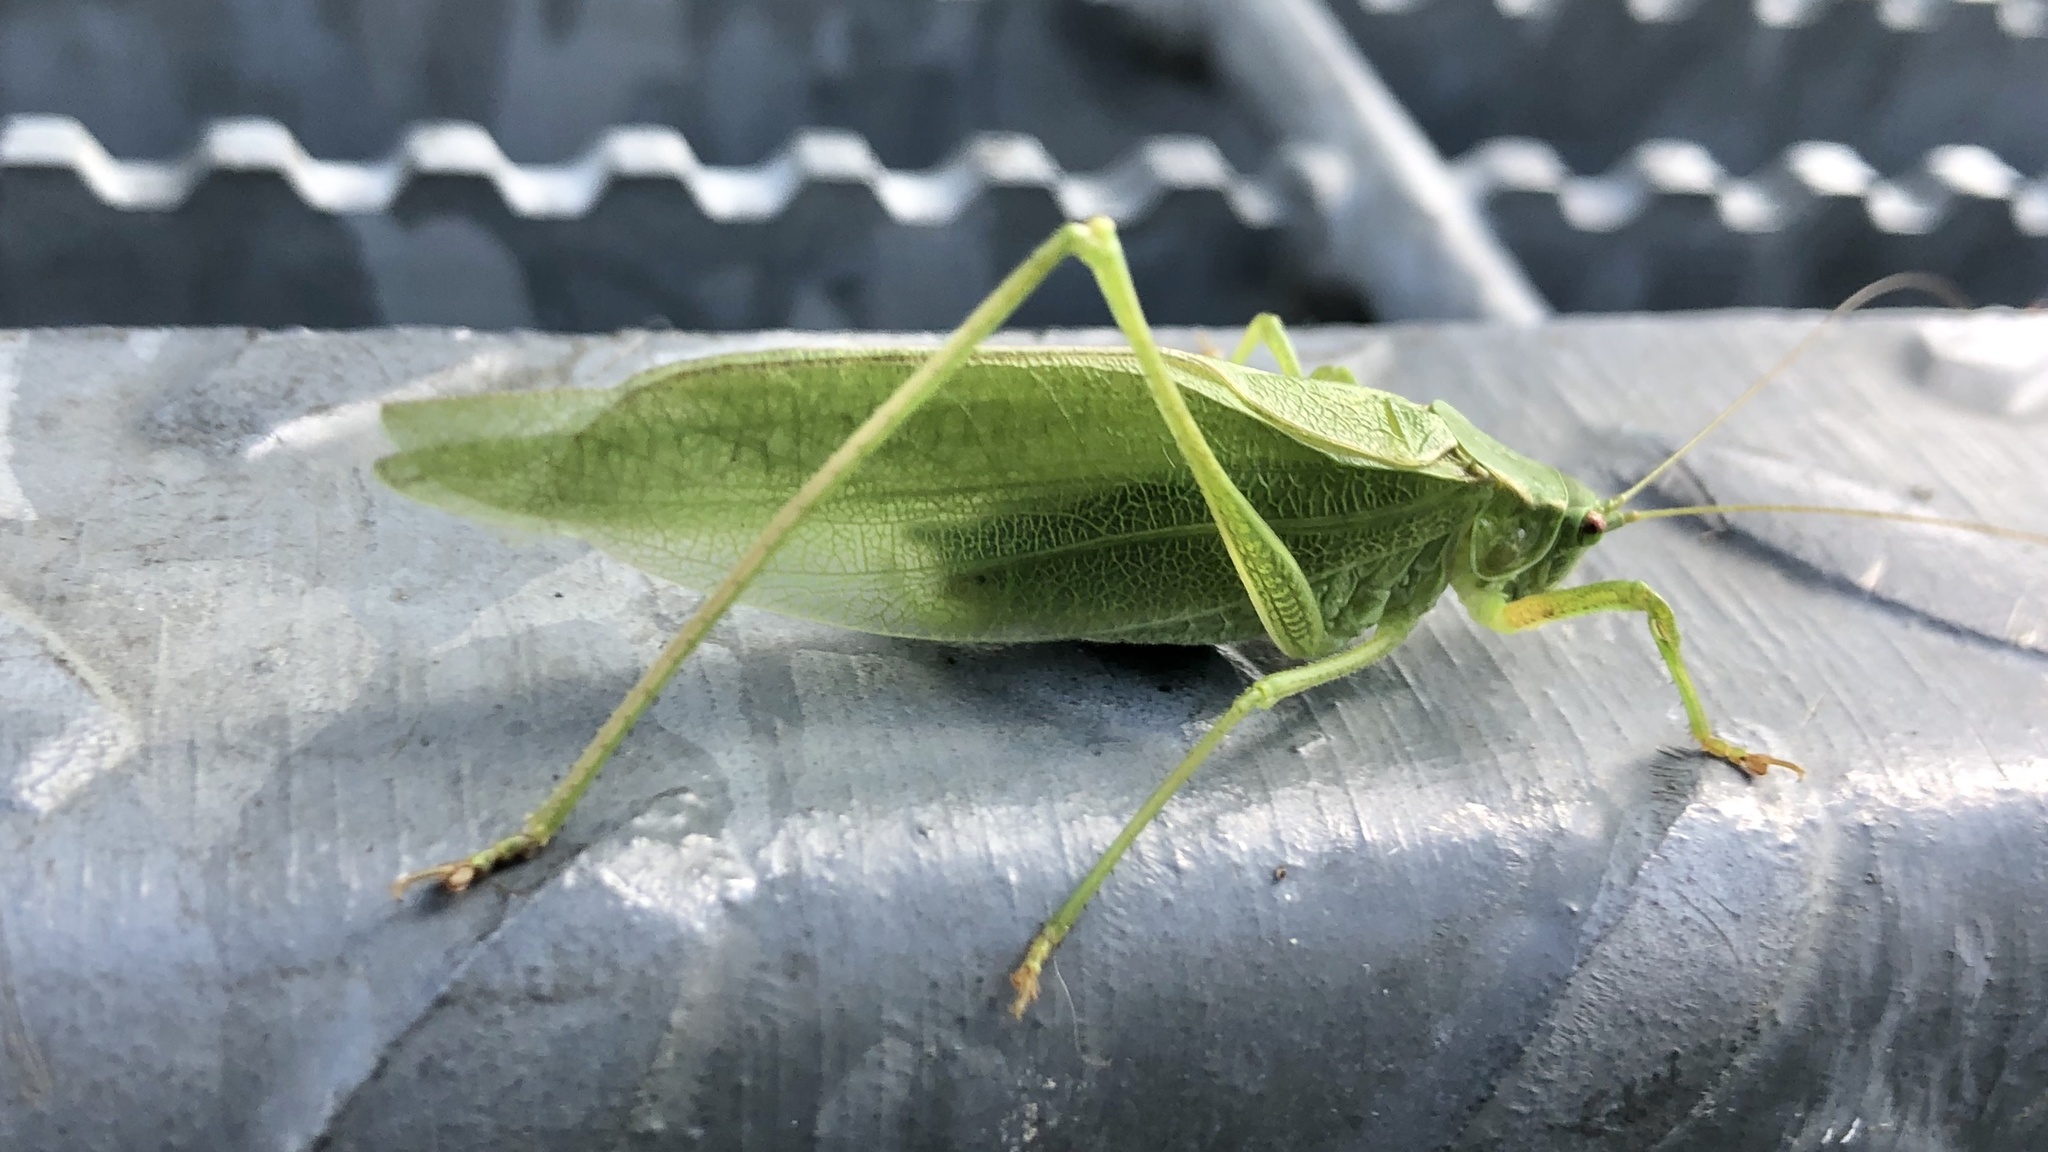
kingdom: Animalia
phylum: Arthropoda
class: Insecta
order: Orthoptera
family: Tettigoniidae
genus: Scudderia
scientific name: Scudderia pistillata
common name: Broad-winged bush-katydid
